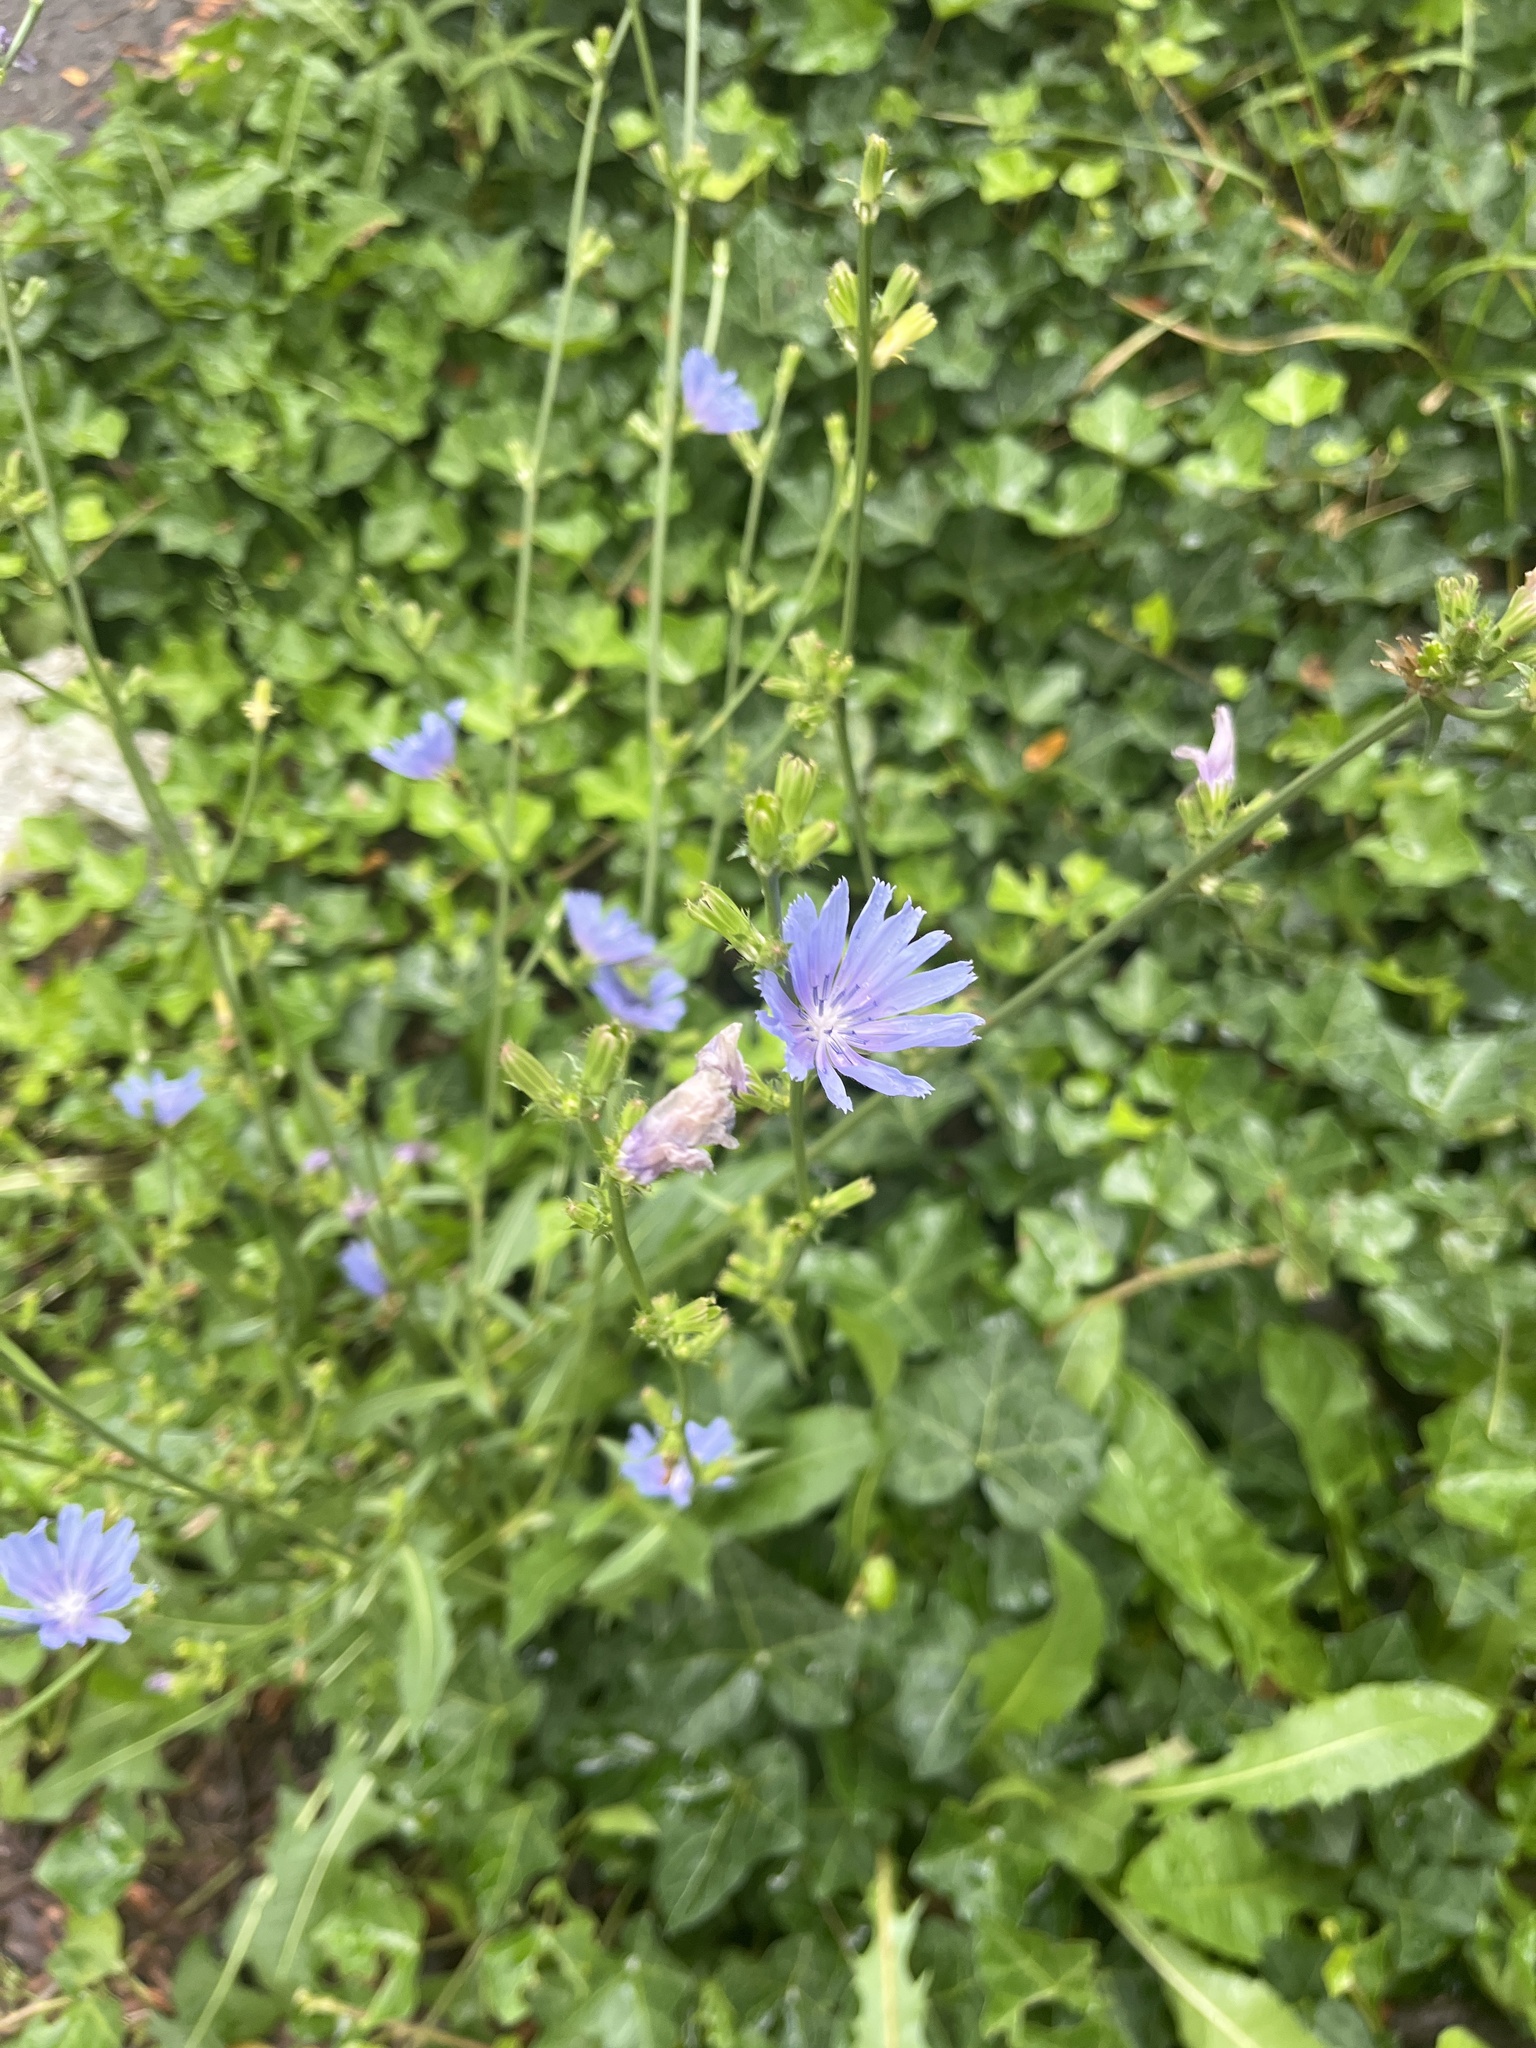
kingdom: Plantae
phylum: Tracheophyta
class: Magnoliopsida
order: Asterales
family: Asteraceae
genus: Cichorium
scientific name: Cichorium intybus
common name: Chicory
